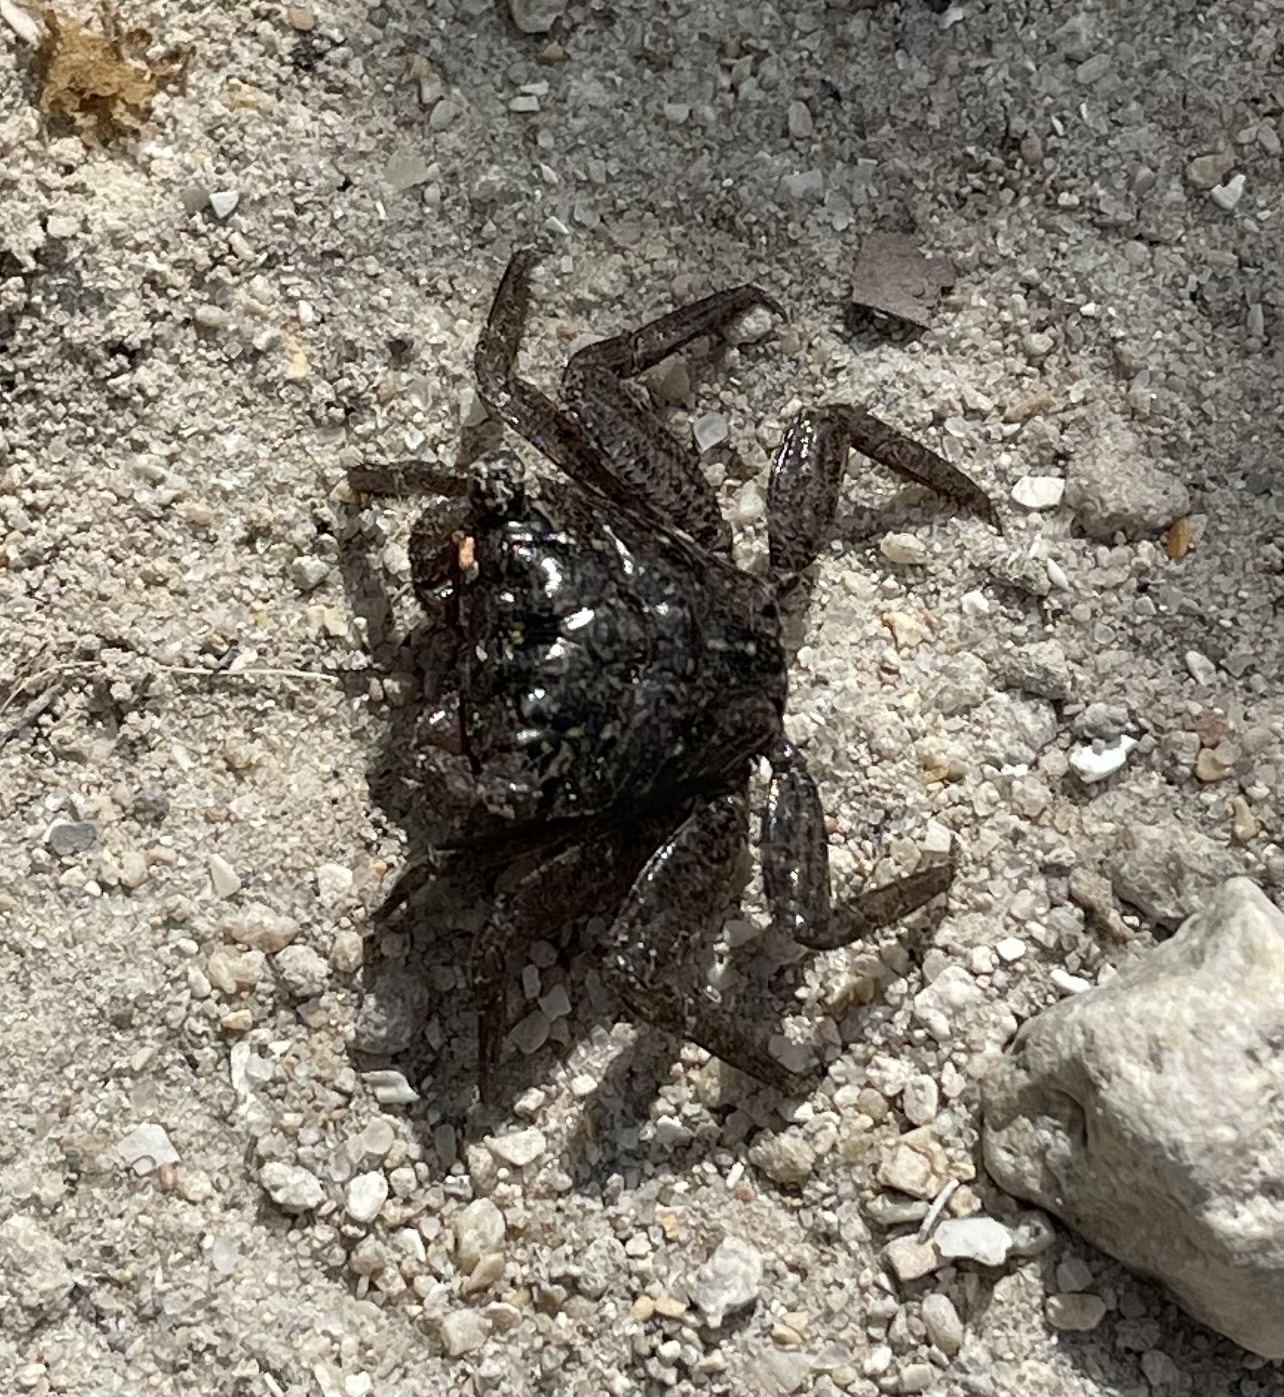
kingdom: Animalia
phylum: Arthropoda
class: Malacostraca
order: Decapoda
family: Sesarmidae
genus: Aratus
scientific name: Aratus pisonii
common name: Mangrove crab
